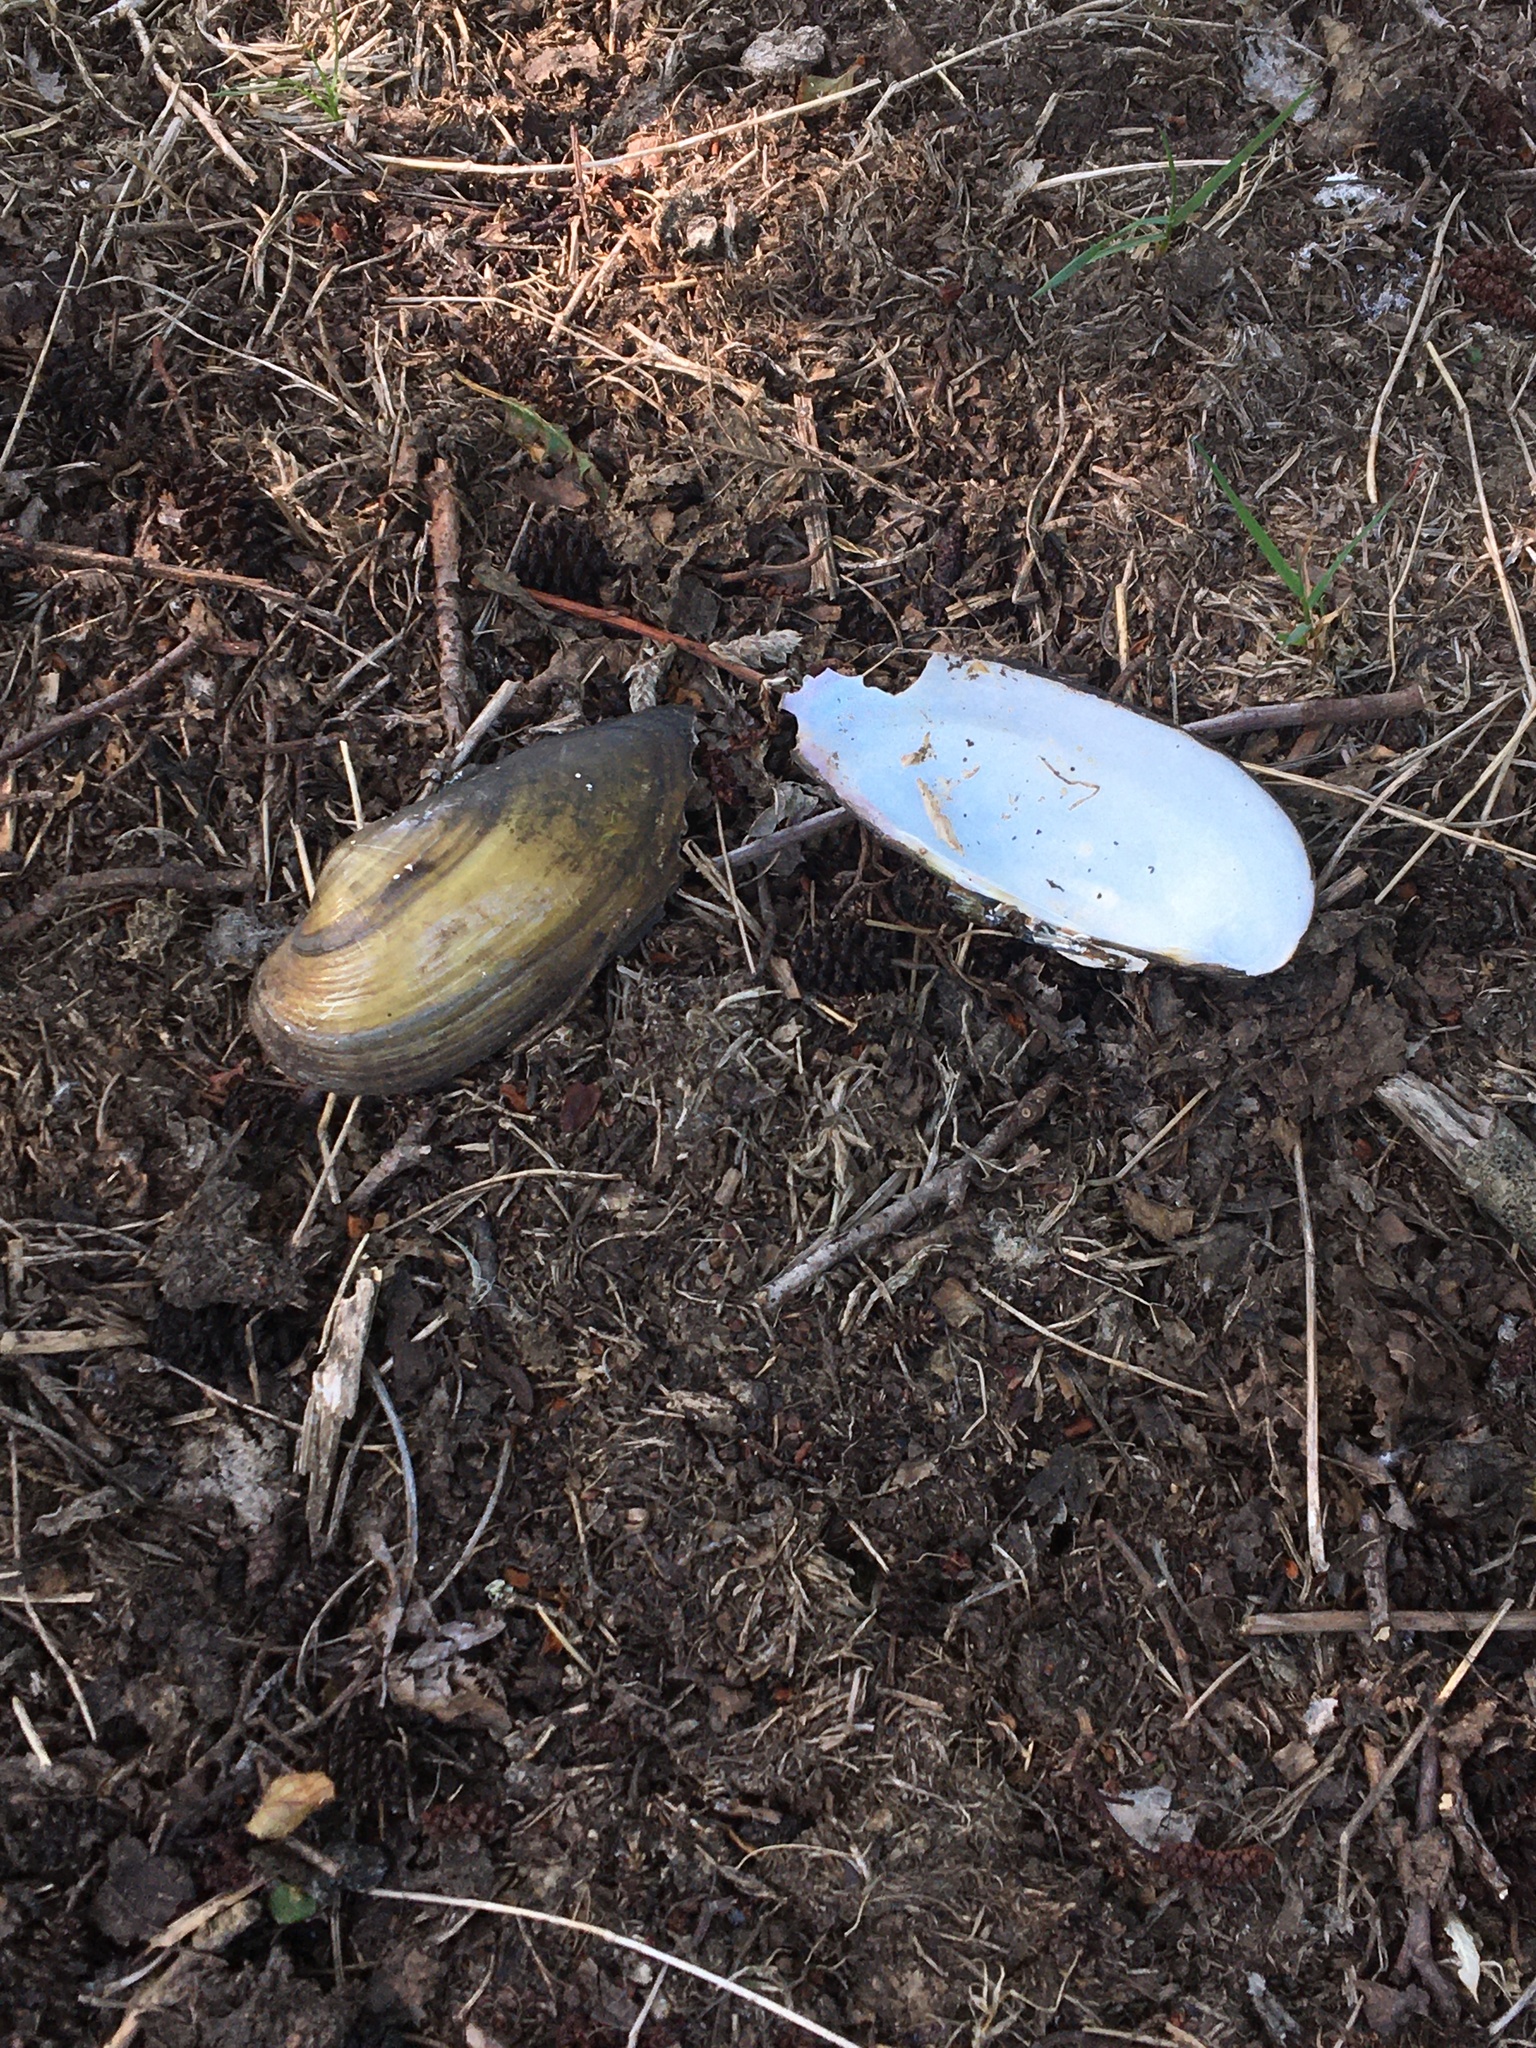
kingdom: Animalia
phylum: Mollusca
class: Bivalvia
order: Unionida
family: Unionidae
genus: Unio
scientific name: Unio pictorum
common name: Painter's mussel
